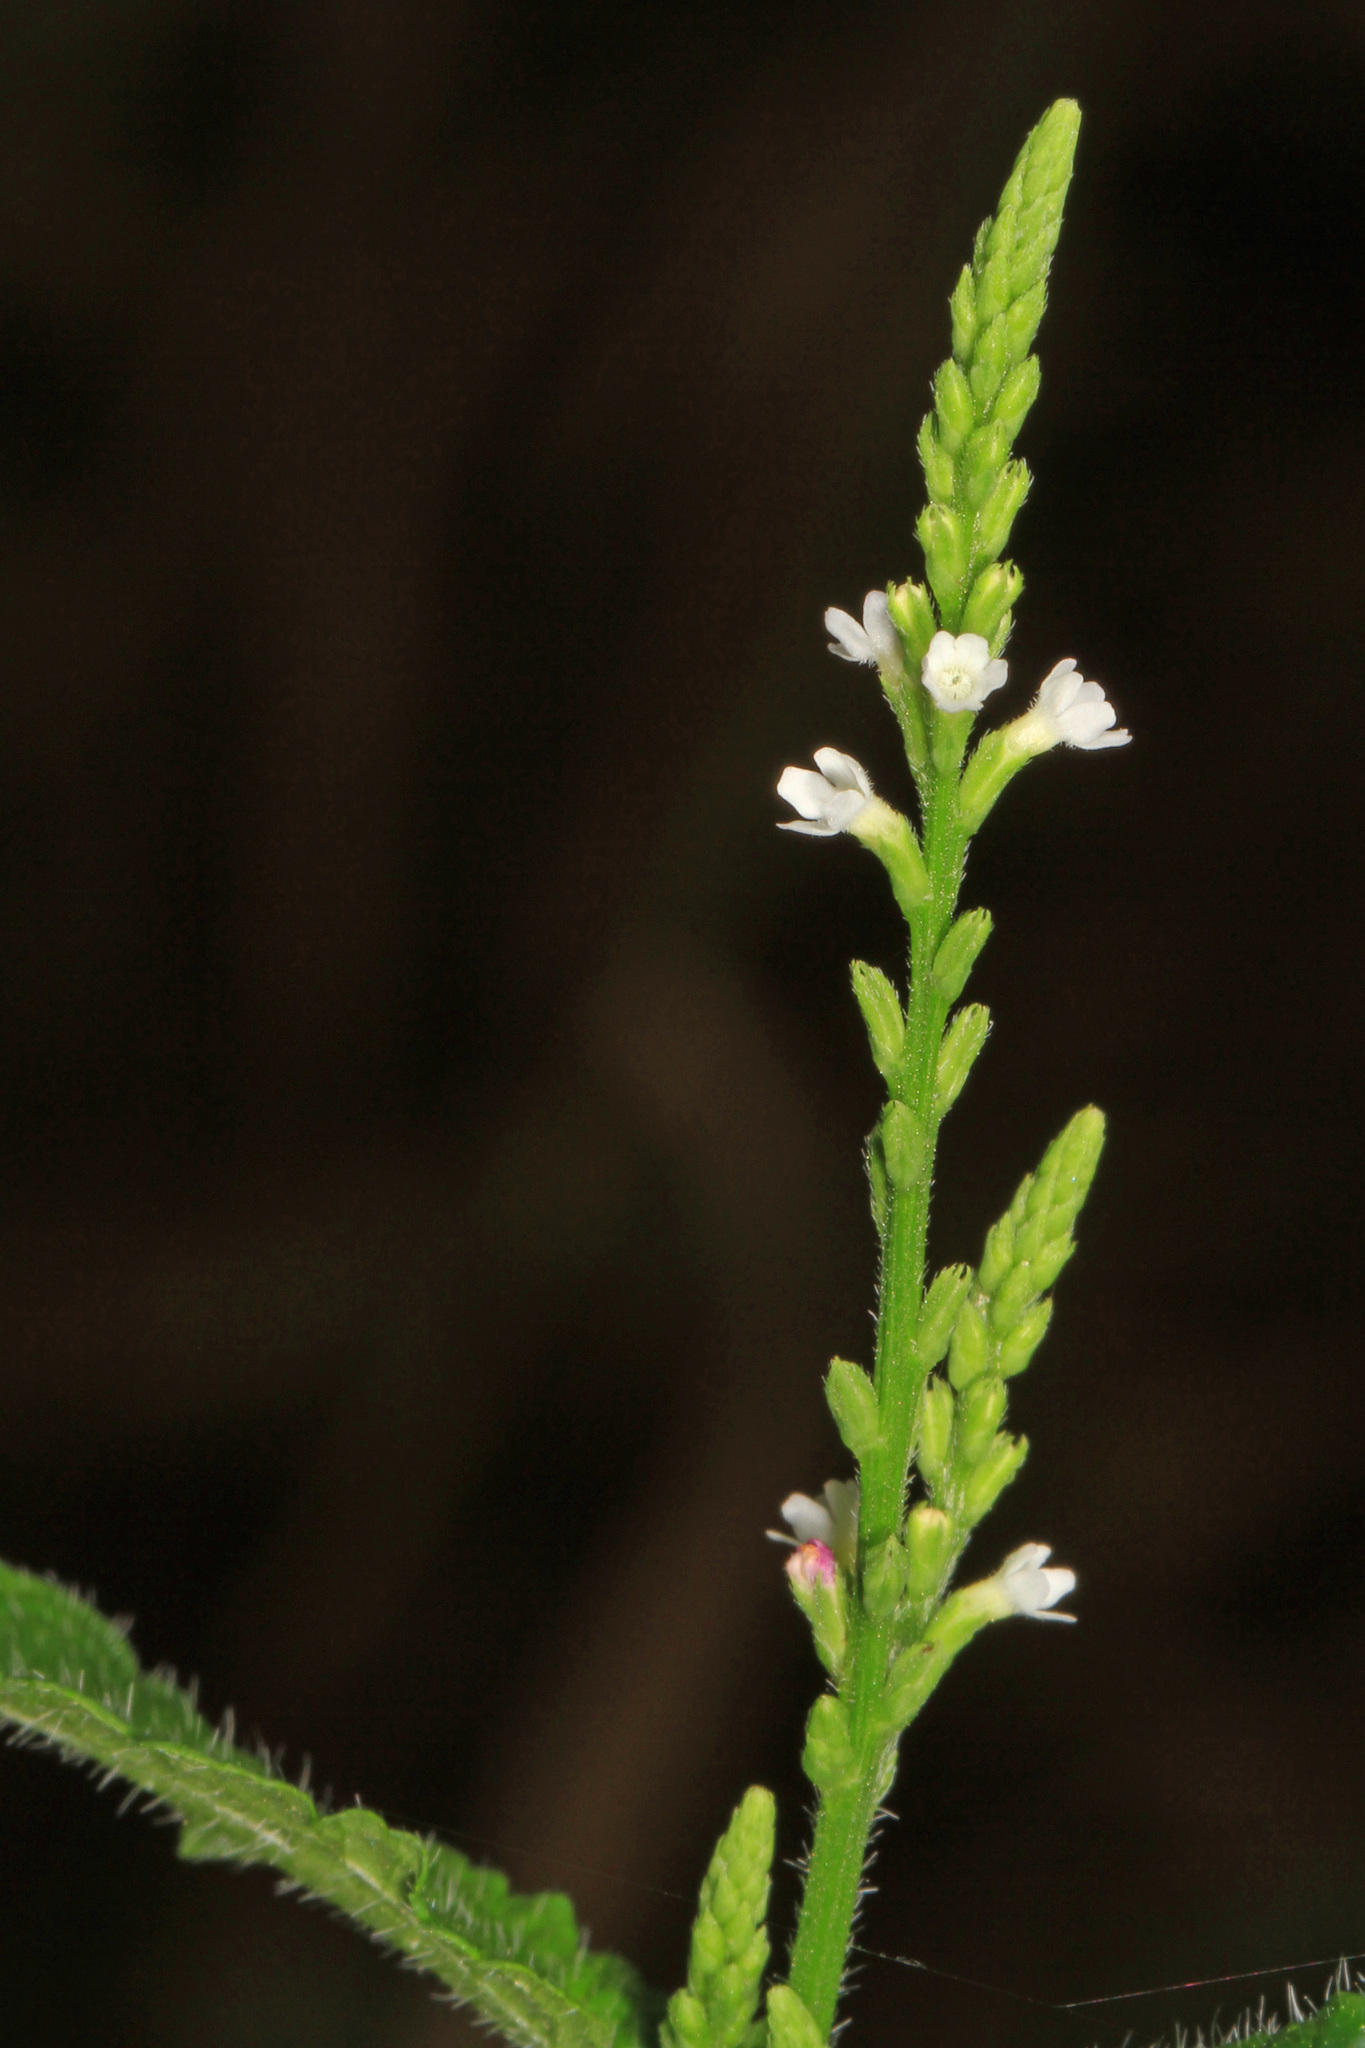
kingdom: Plantae
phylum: Tracheophyta
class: Magnoliopsida
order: Lamiales
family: Verbenaceae
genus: Verbena
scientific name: Verbena urticifolia
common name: Nettle-leaved vervain
